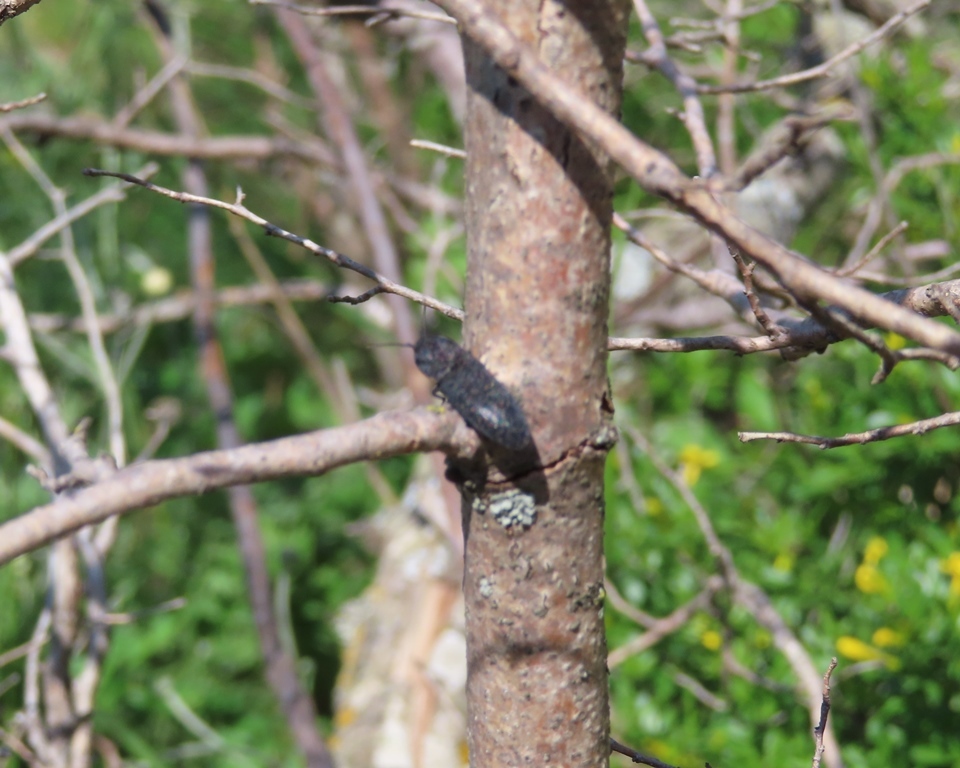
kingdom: Animalia
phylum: Arthropoda
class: Insecta
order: Coleoptera
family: Elateridae
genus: Lacon
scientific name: Lacon punctatus
